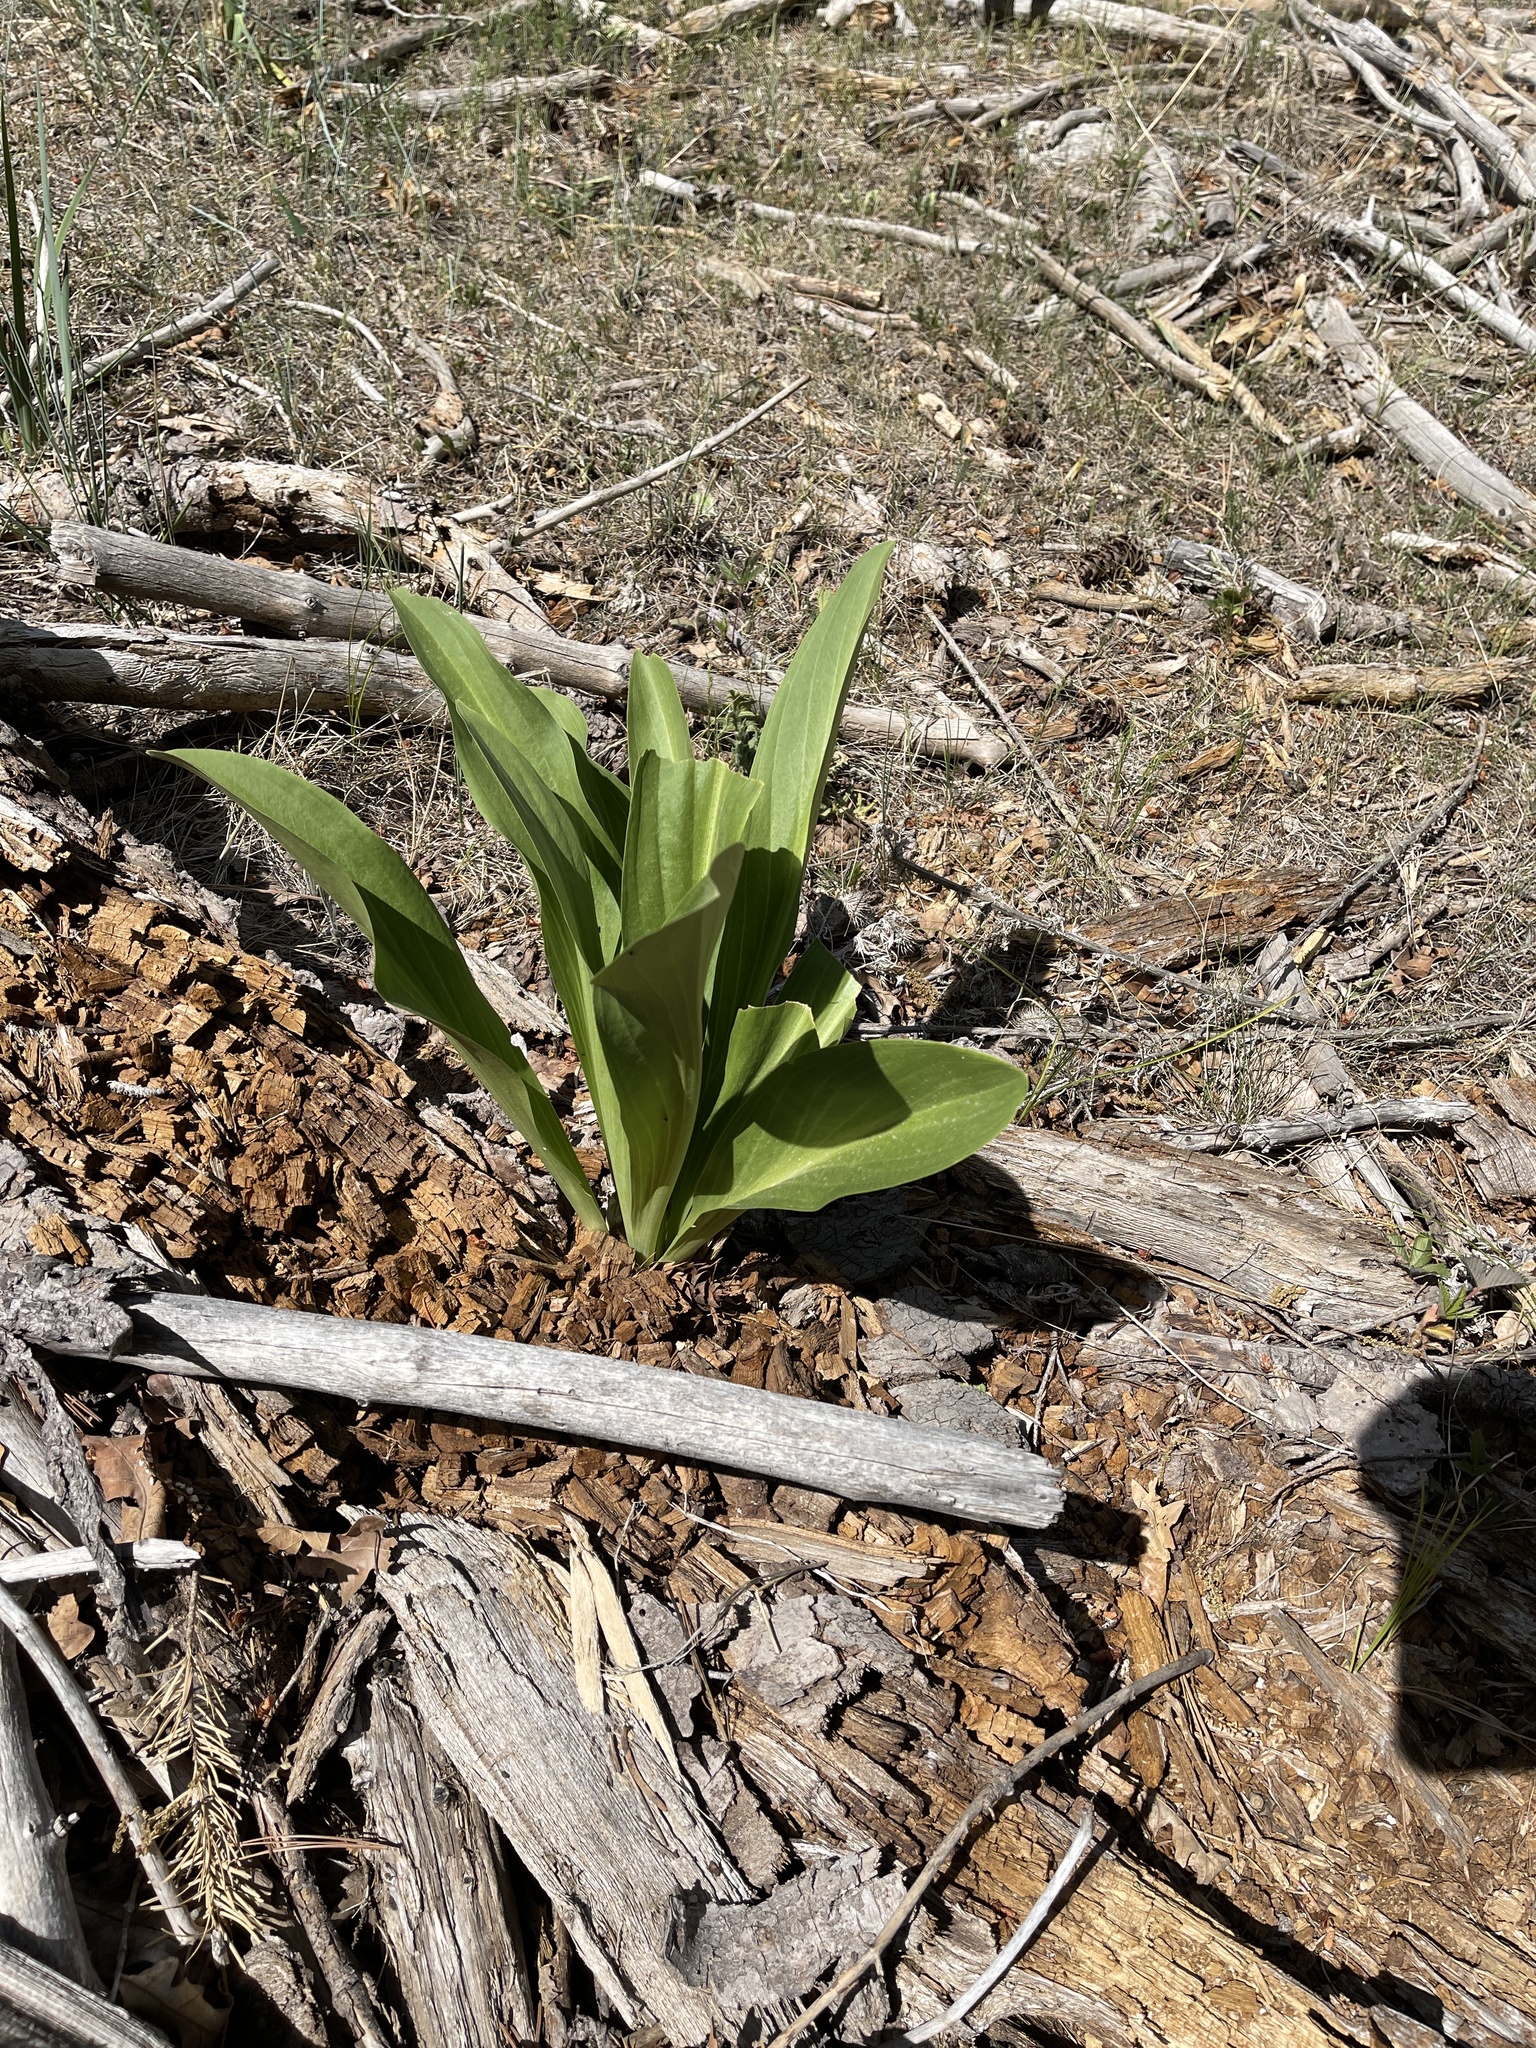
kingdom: Plantae
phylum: Tracheophyta
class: Magnoliopsida
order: Gentianales
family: Gentianaceae
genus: Frasera
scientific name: Frasera speciosa
